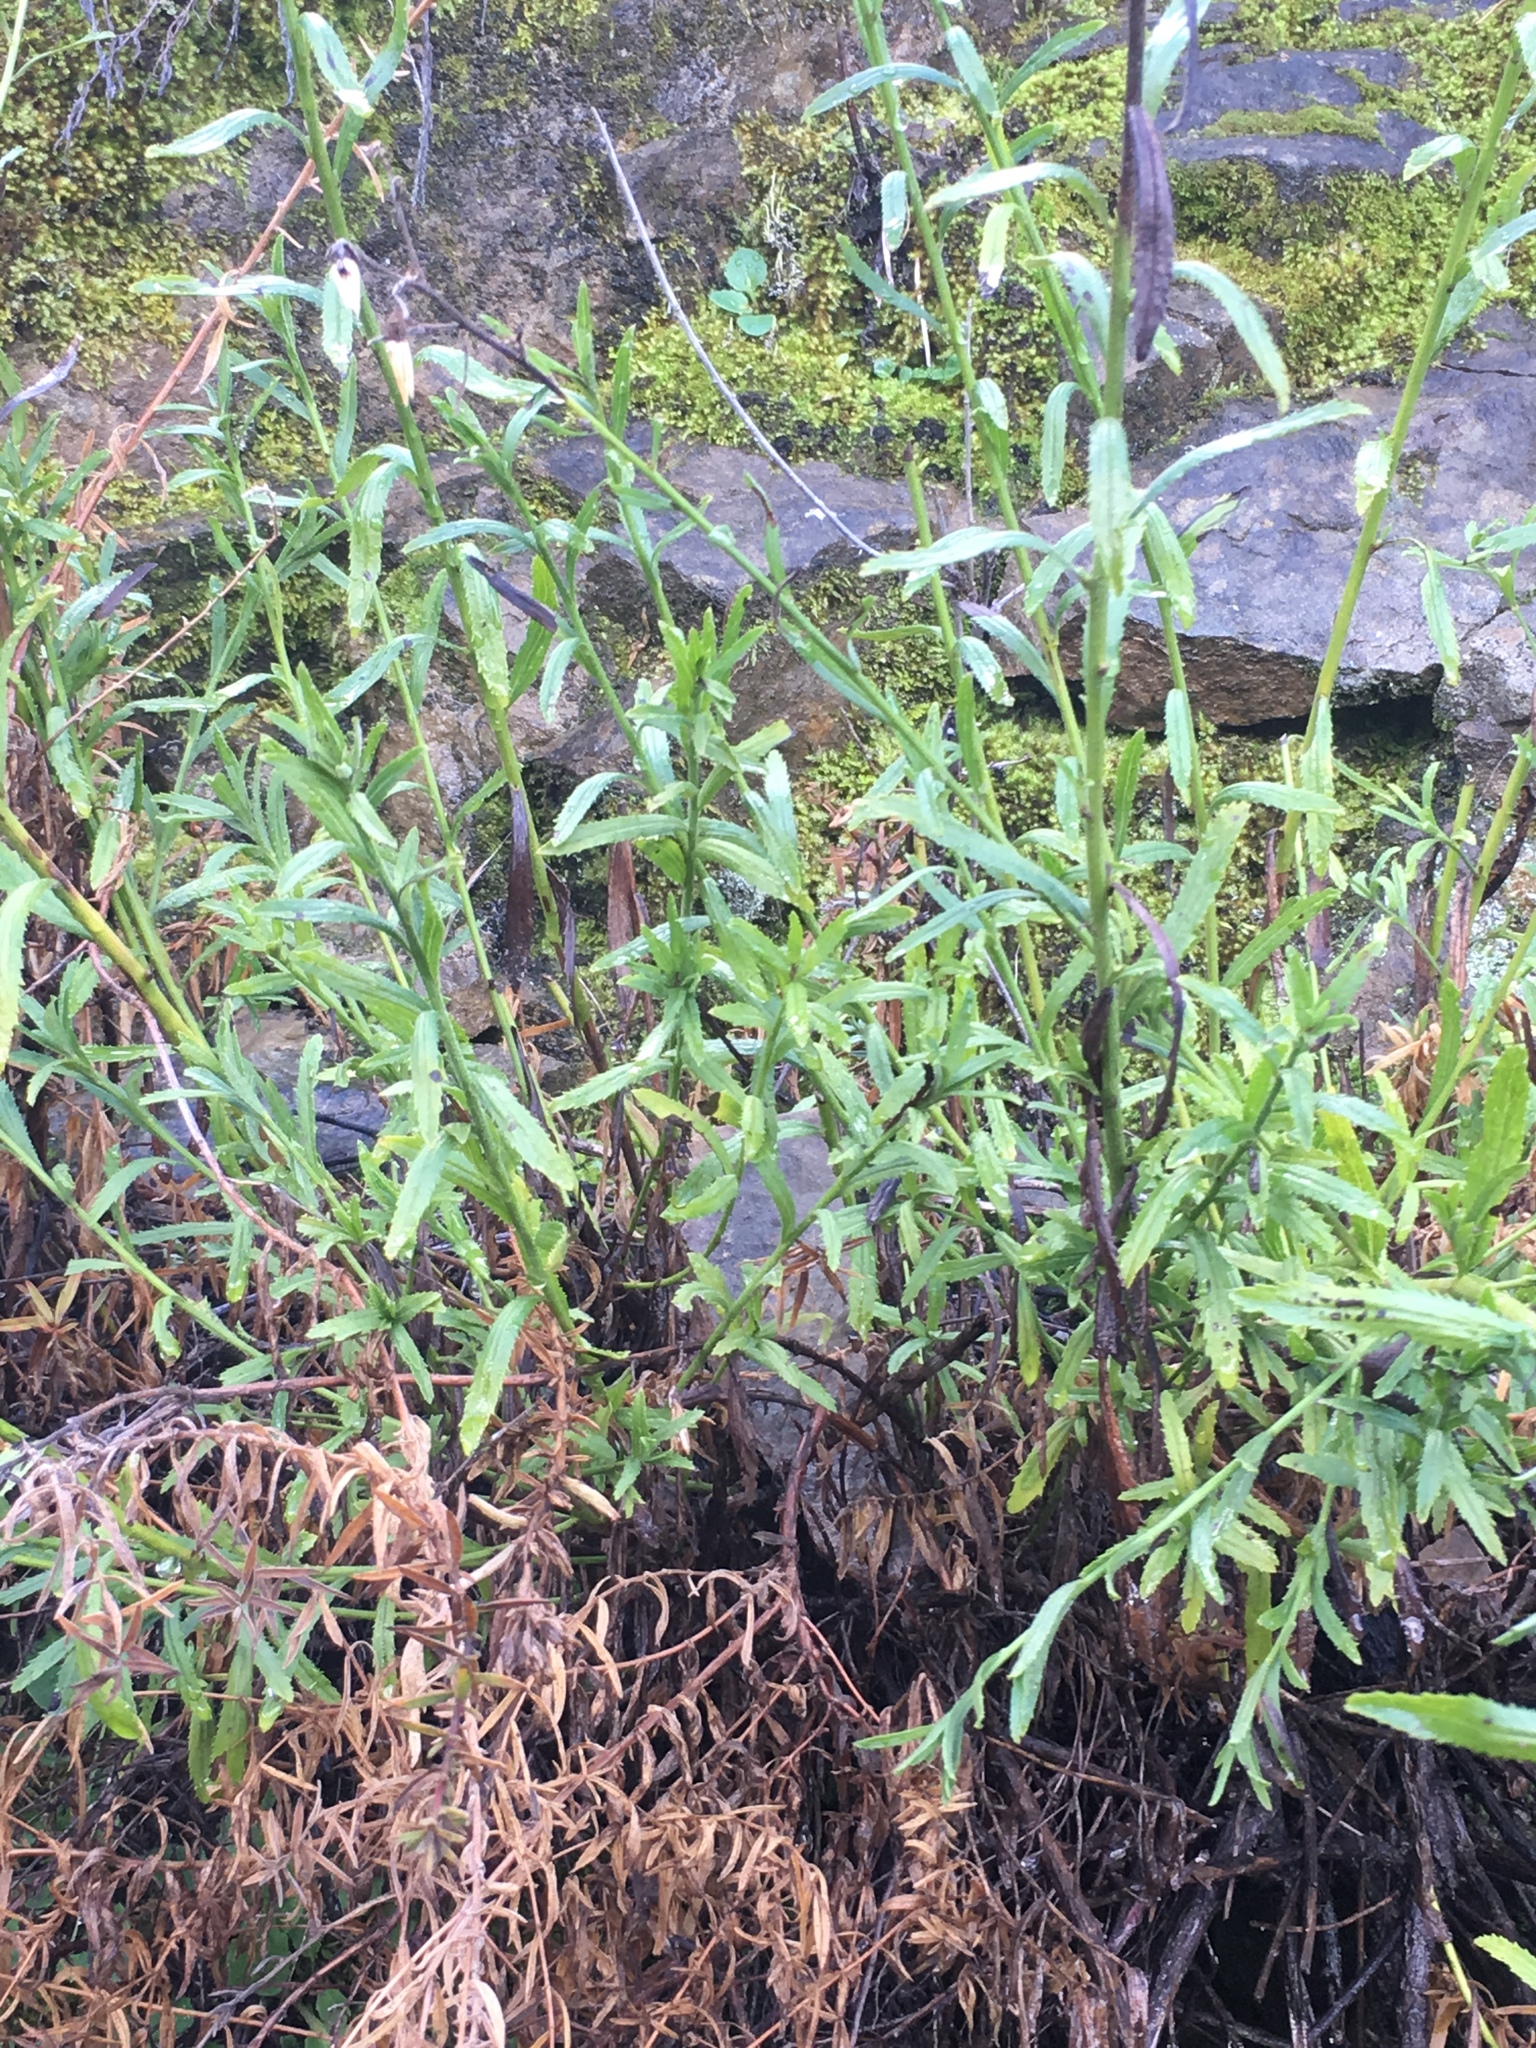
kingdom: Plantae
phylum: Tracheophyta
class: Magnoliopsida
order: Asterales
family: Asteraceae
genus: Baccharis
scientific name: Baccharis plummerae
